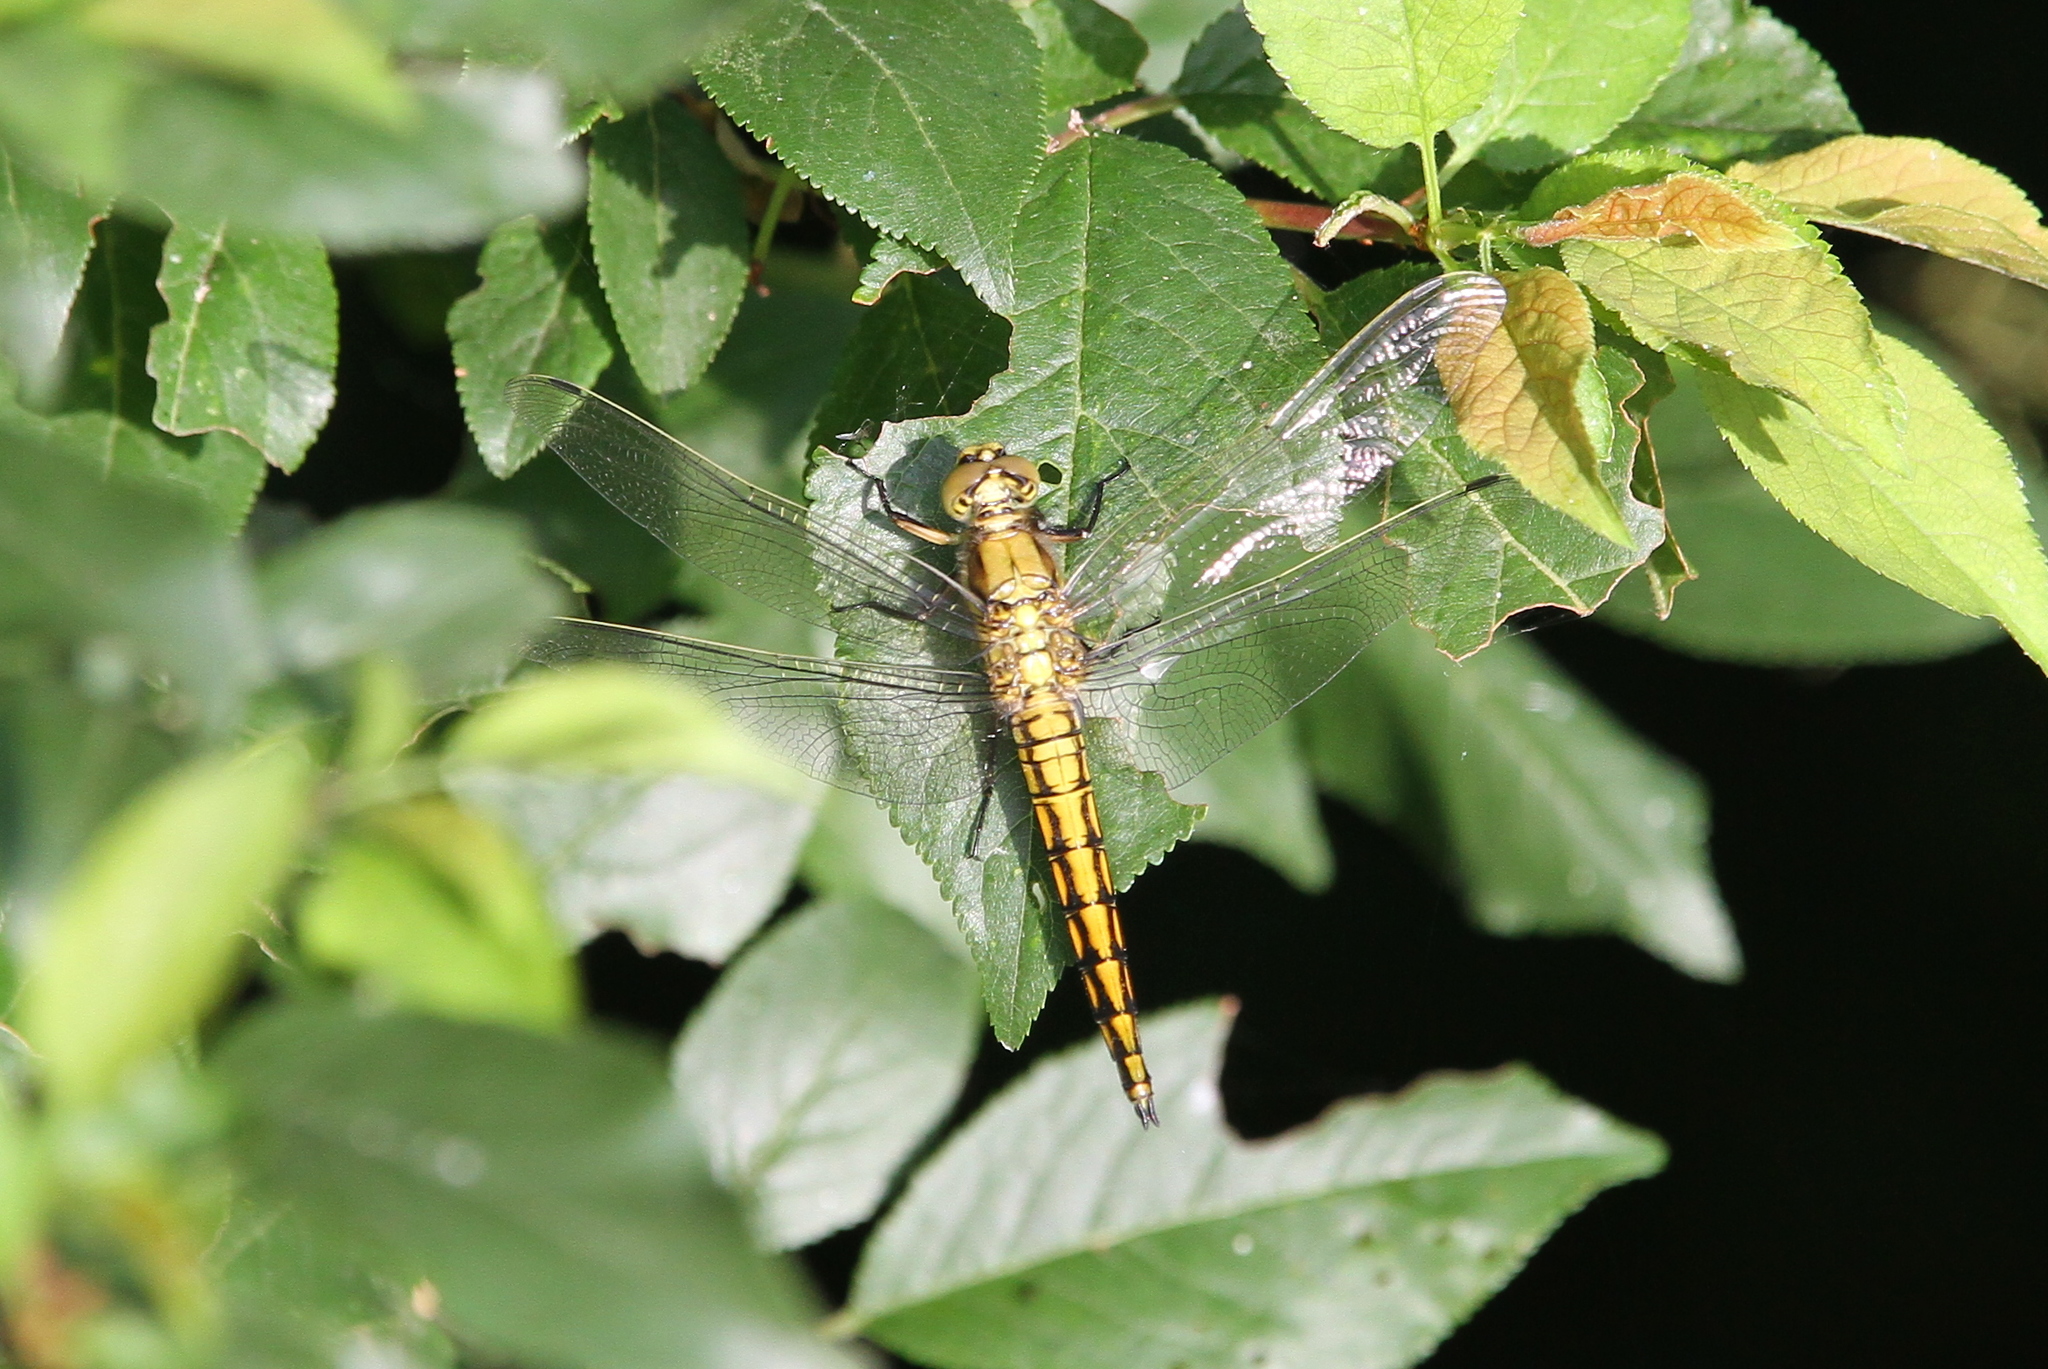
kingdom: Animalia
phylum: Arthropoda
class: Insecta
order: Odonata
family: Libellulidae
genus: Orthetrum
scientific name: Orthetrum cancellatum
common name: Black-tailed skimmer
